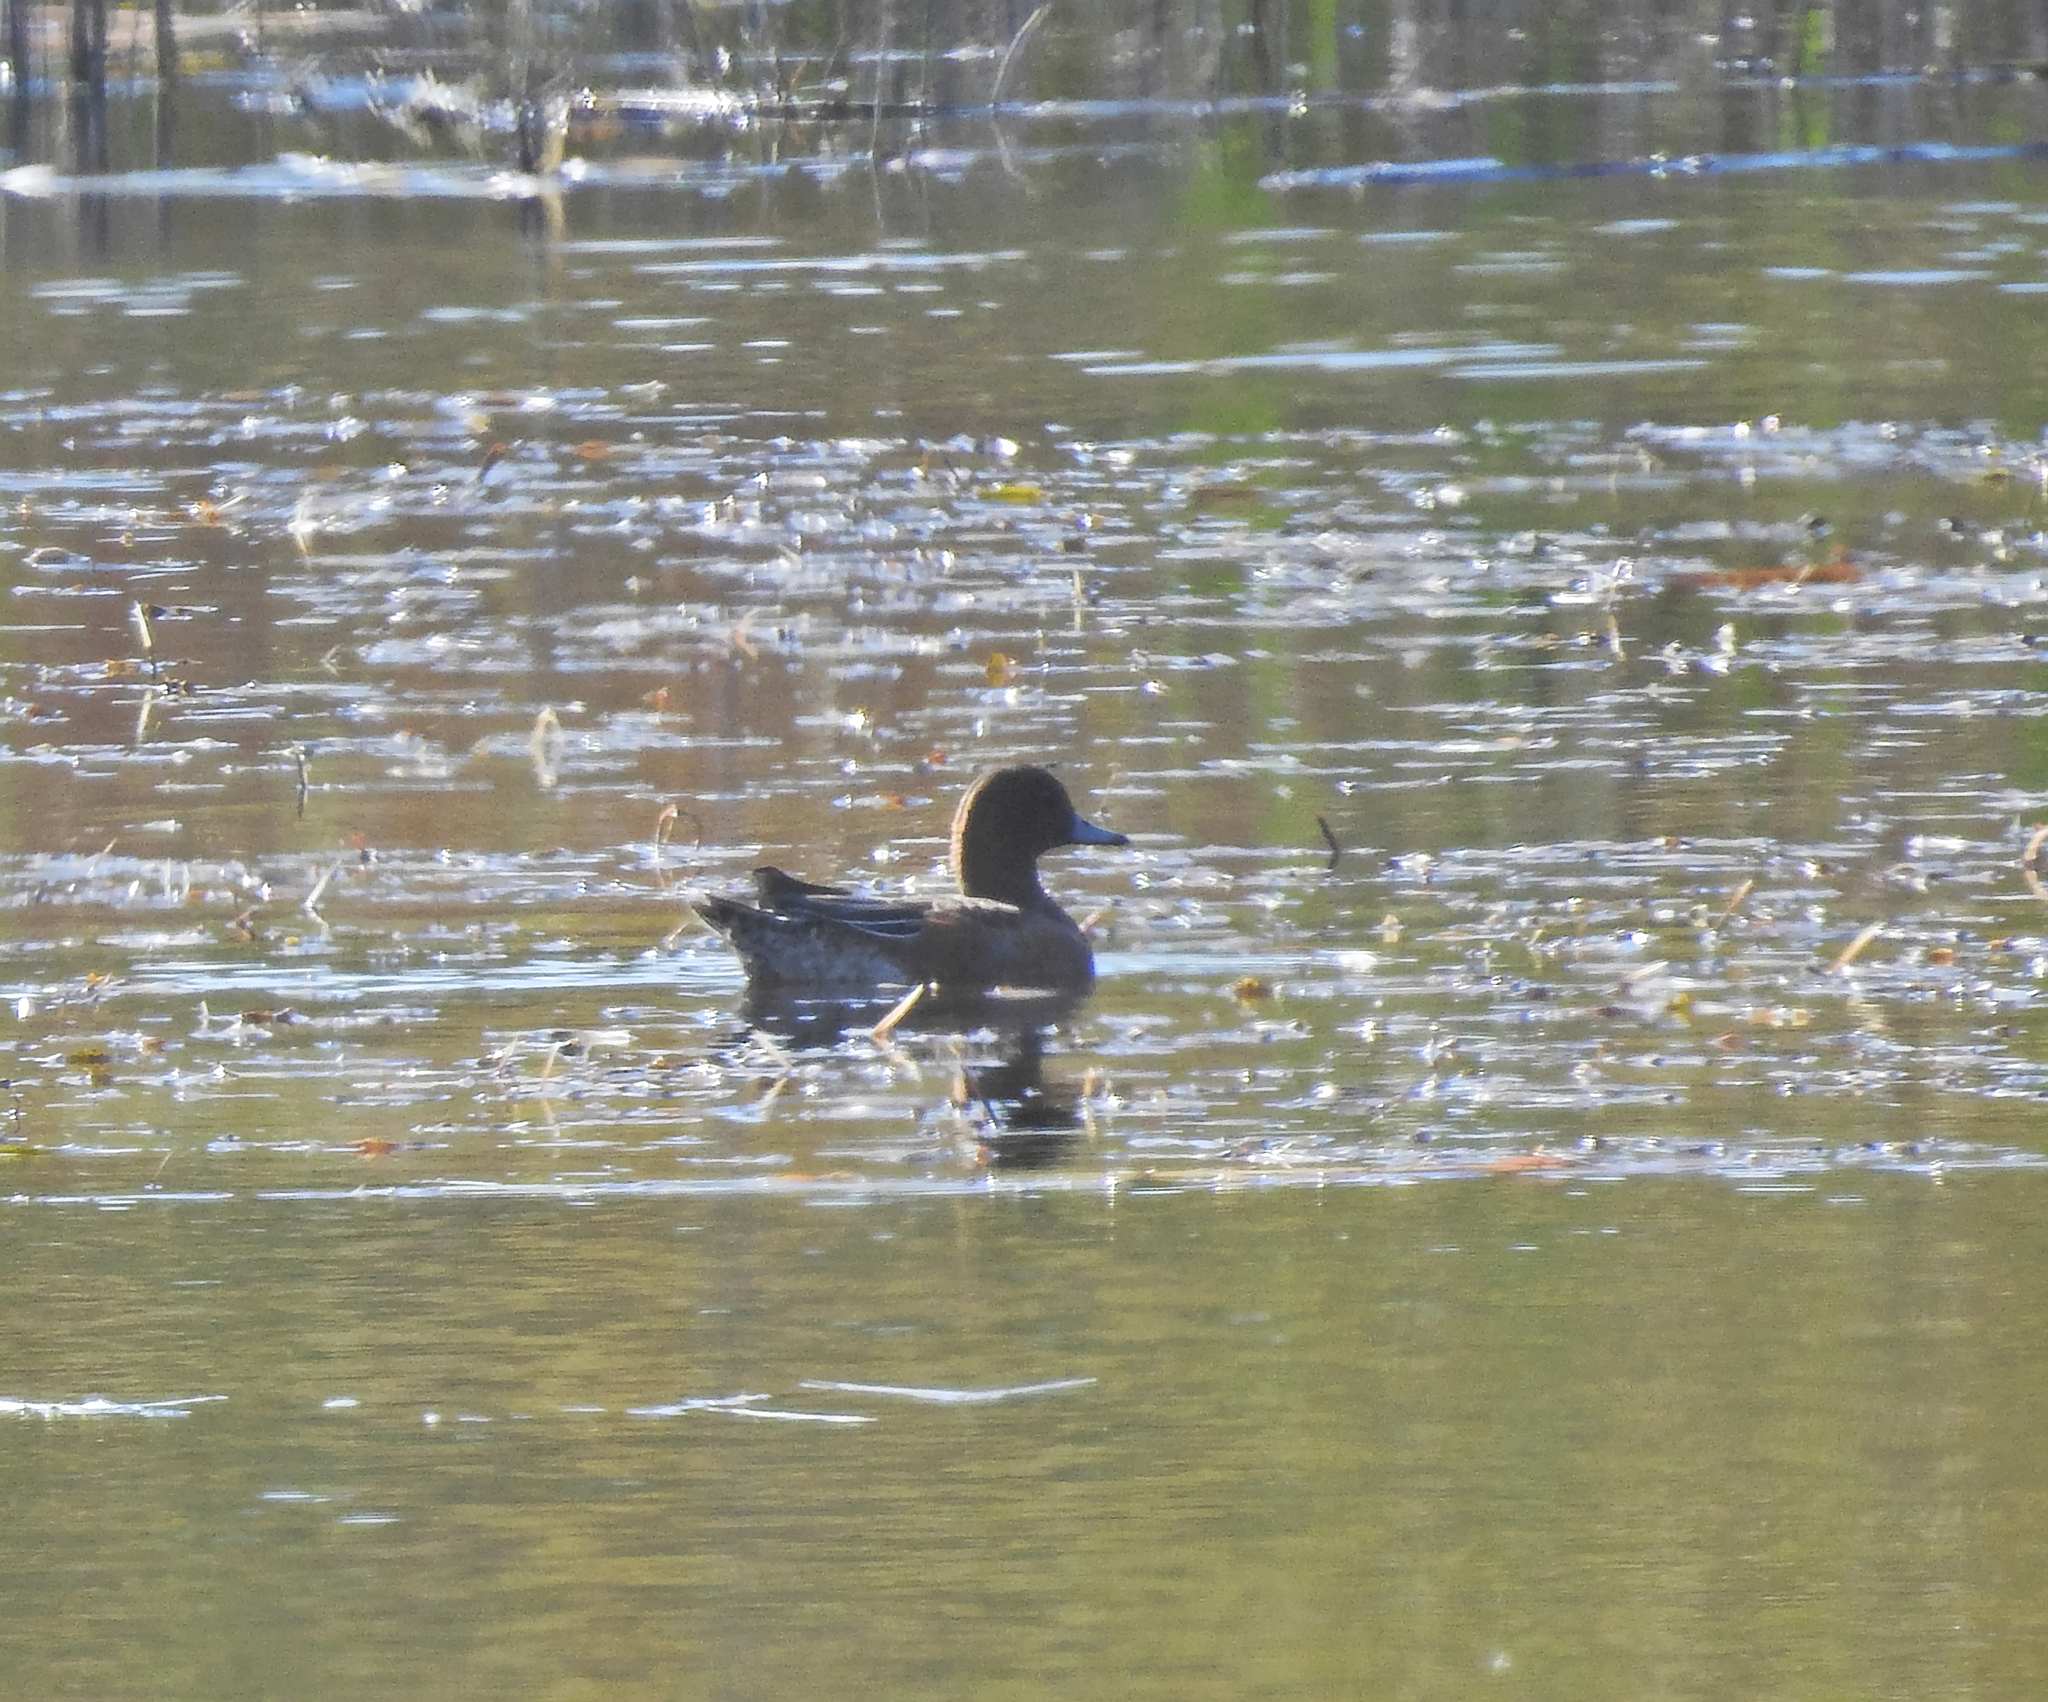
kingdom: Animalia
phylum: Chordata
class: Aves
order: Anseriformes
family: Anatidae
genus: Mareca
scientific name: Mareca penelope
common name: Eurasian wigeon
